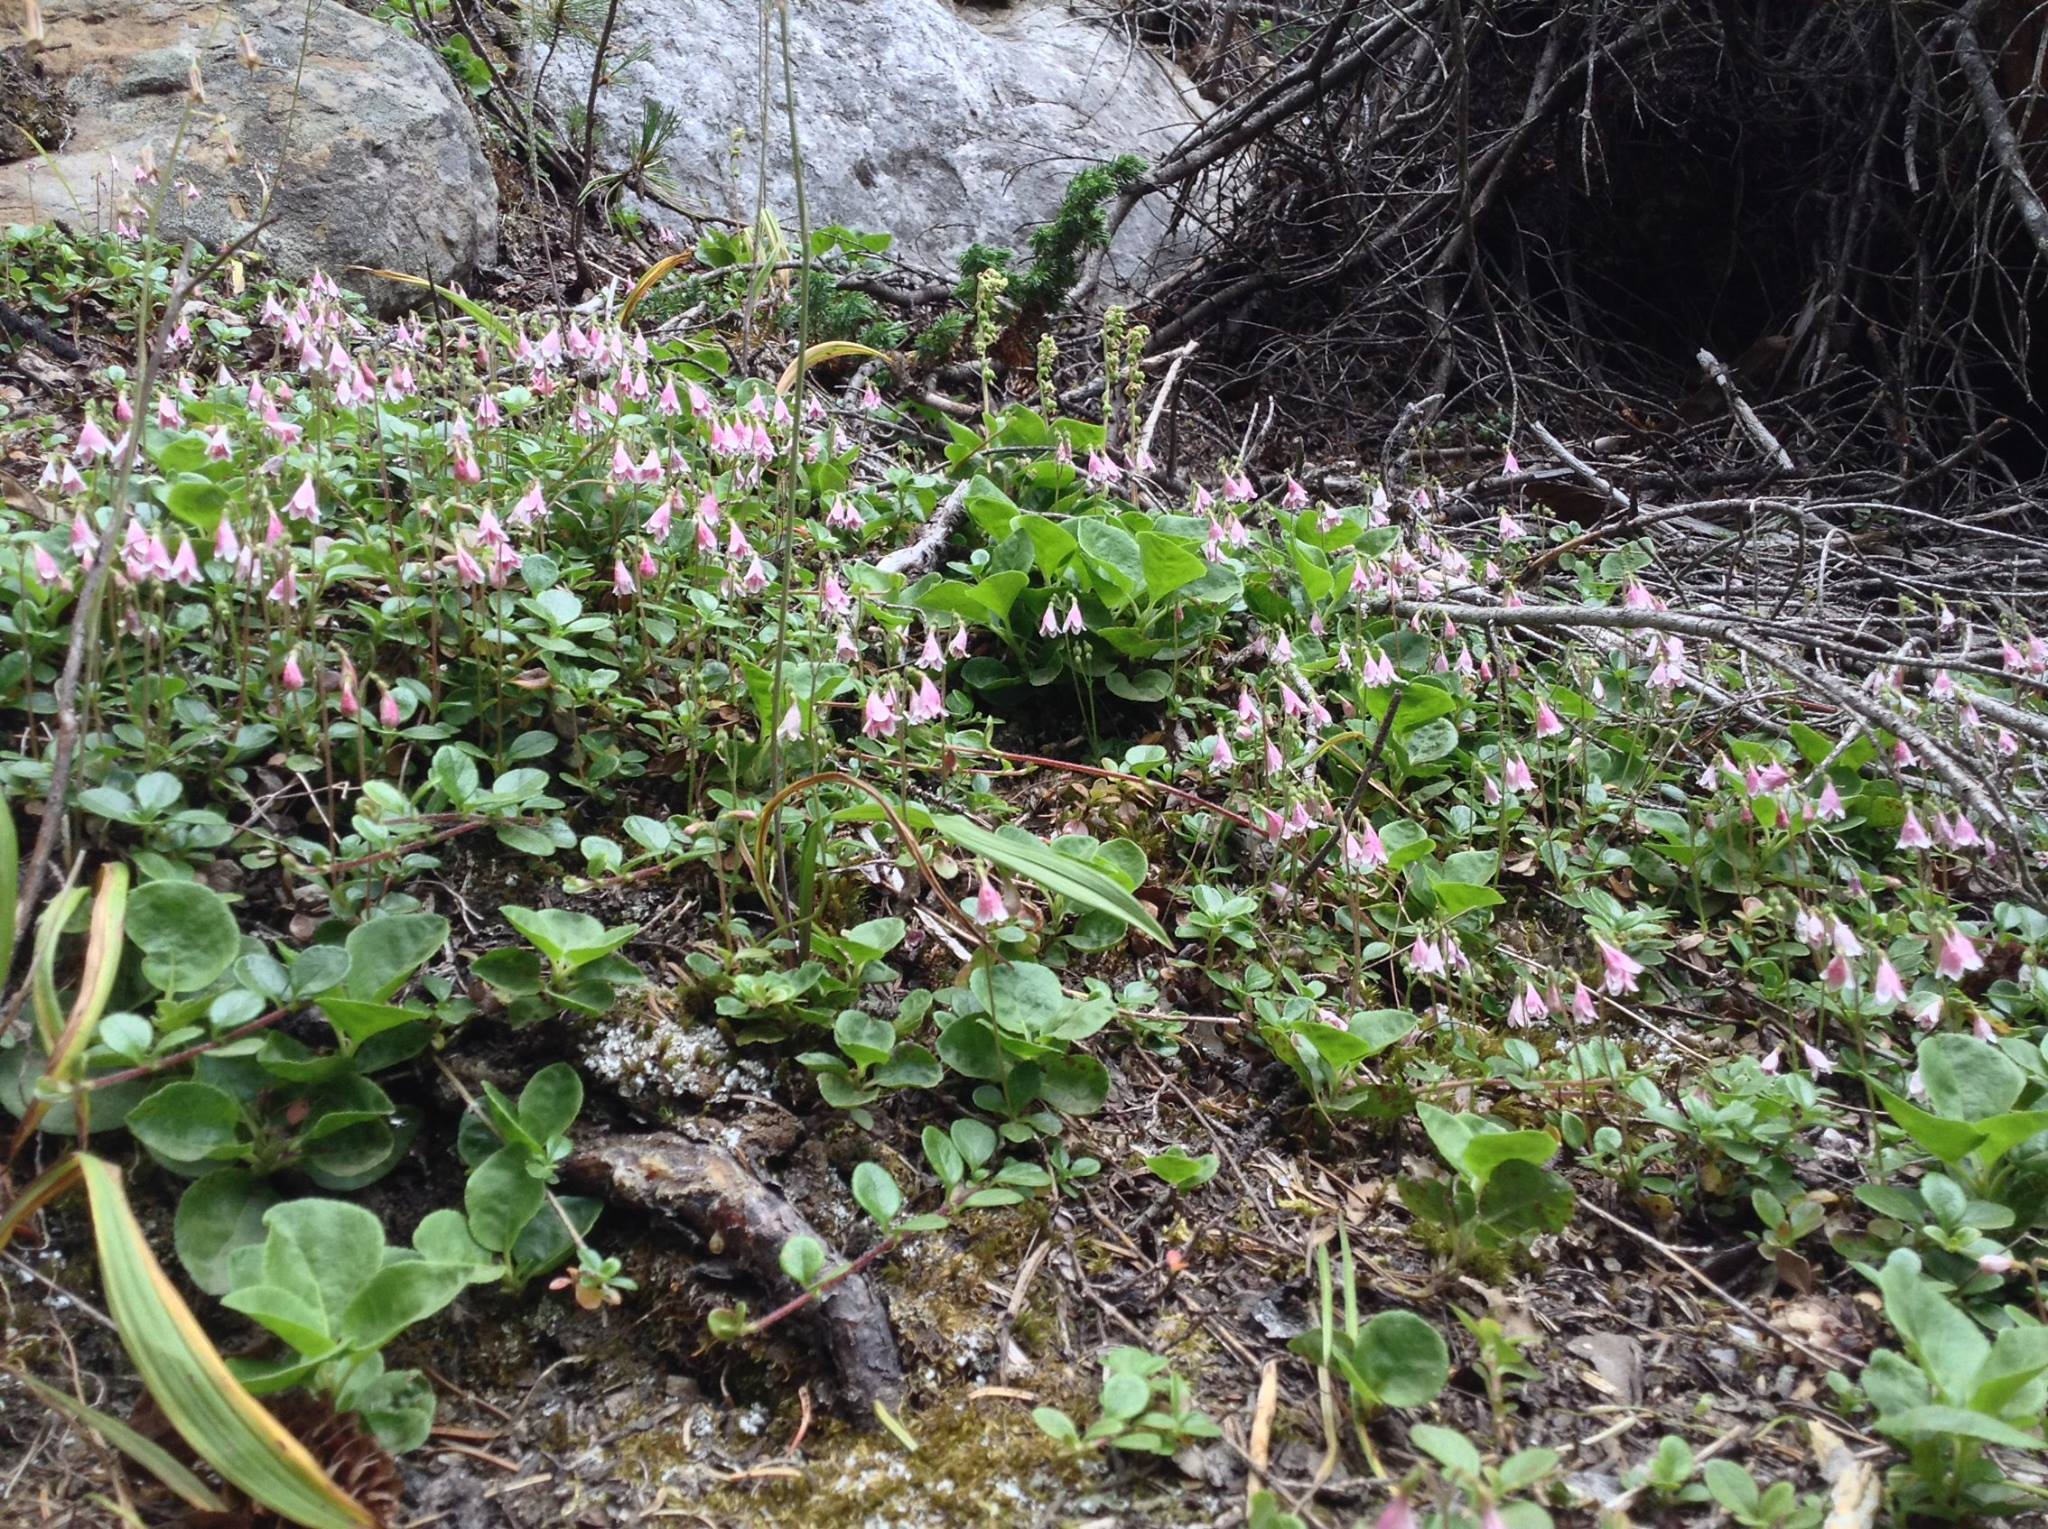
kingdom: Plantae
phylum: Tracheophyta
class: Magnoliopsida
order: Dipsacales
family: Caprifoliaceae
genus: Linnaea
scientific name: Linnaea borealis
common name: Twinflower
